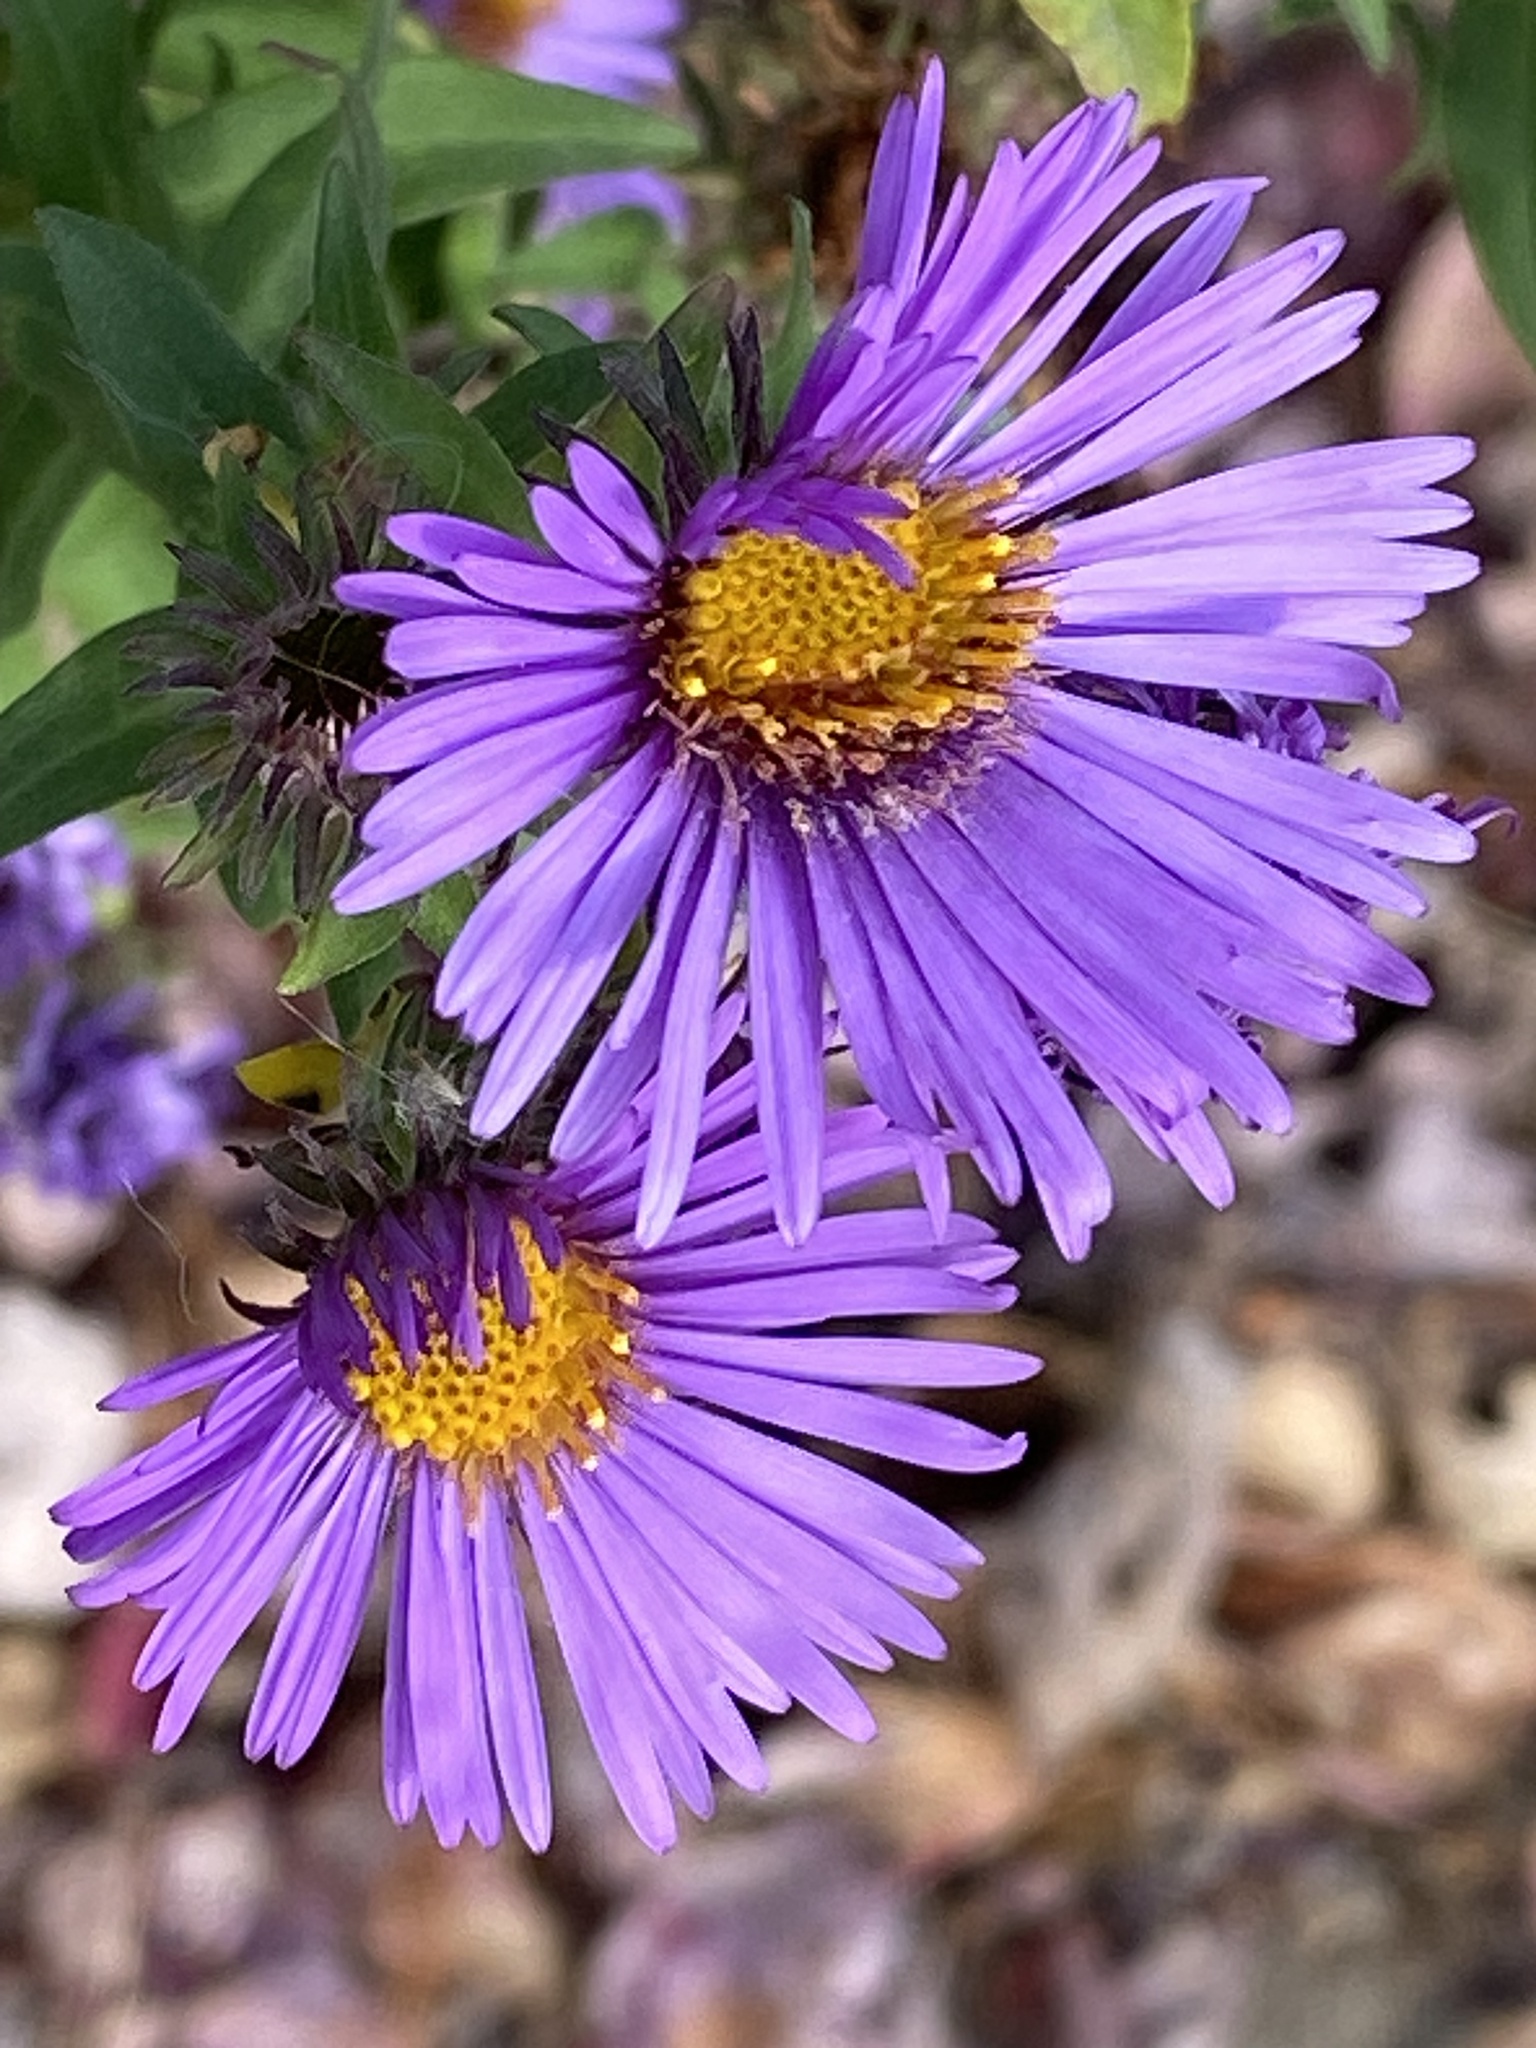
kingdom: Plantae
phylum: Tracheophyta
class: Magnoliopsida
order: Asterales
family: Asteraceae
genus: Symphyotrichum
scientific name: Symphyotrichum novae-angliae
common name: Michaelmas daisy
